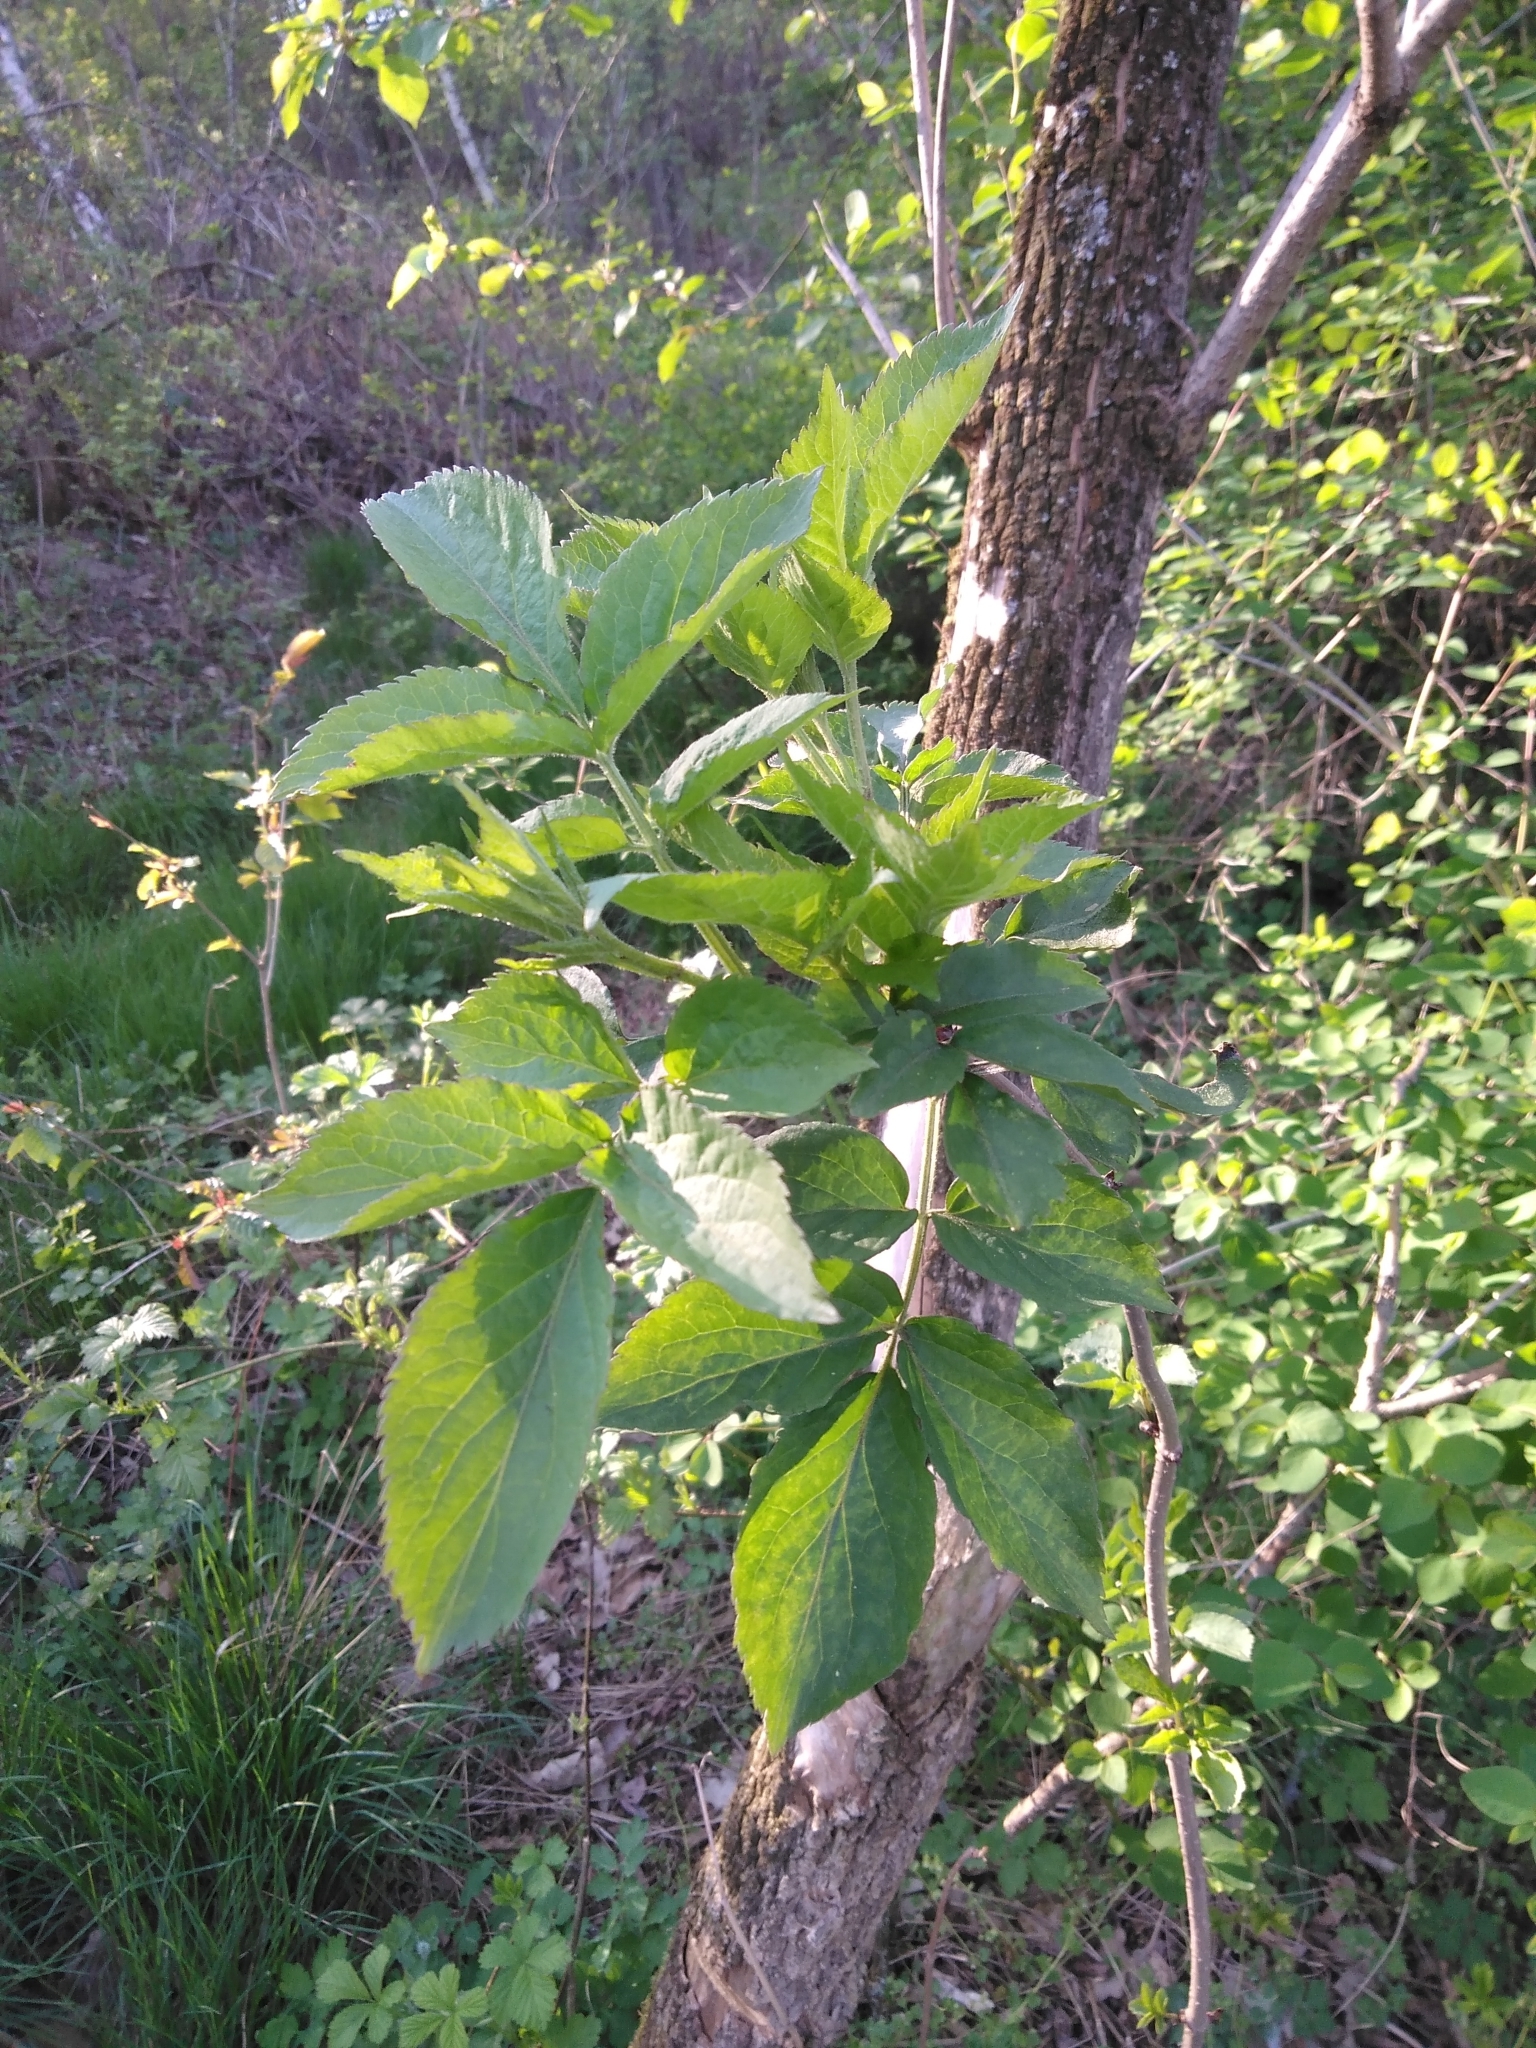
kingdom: Plantae
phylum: Tracheophyta
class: Magnoliopsida
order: Dipsacales
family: Viburnaceae
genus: Sambucus
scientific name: Sambucus nigra
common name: Elder
